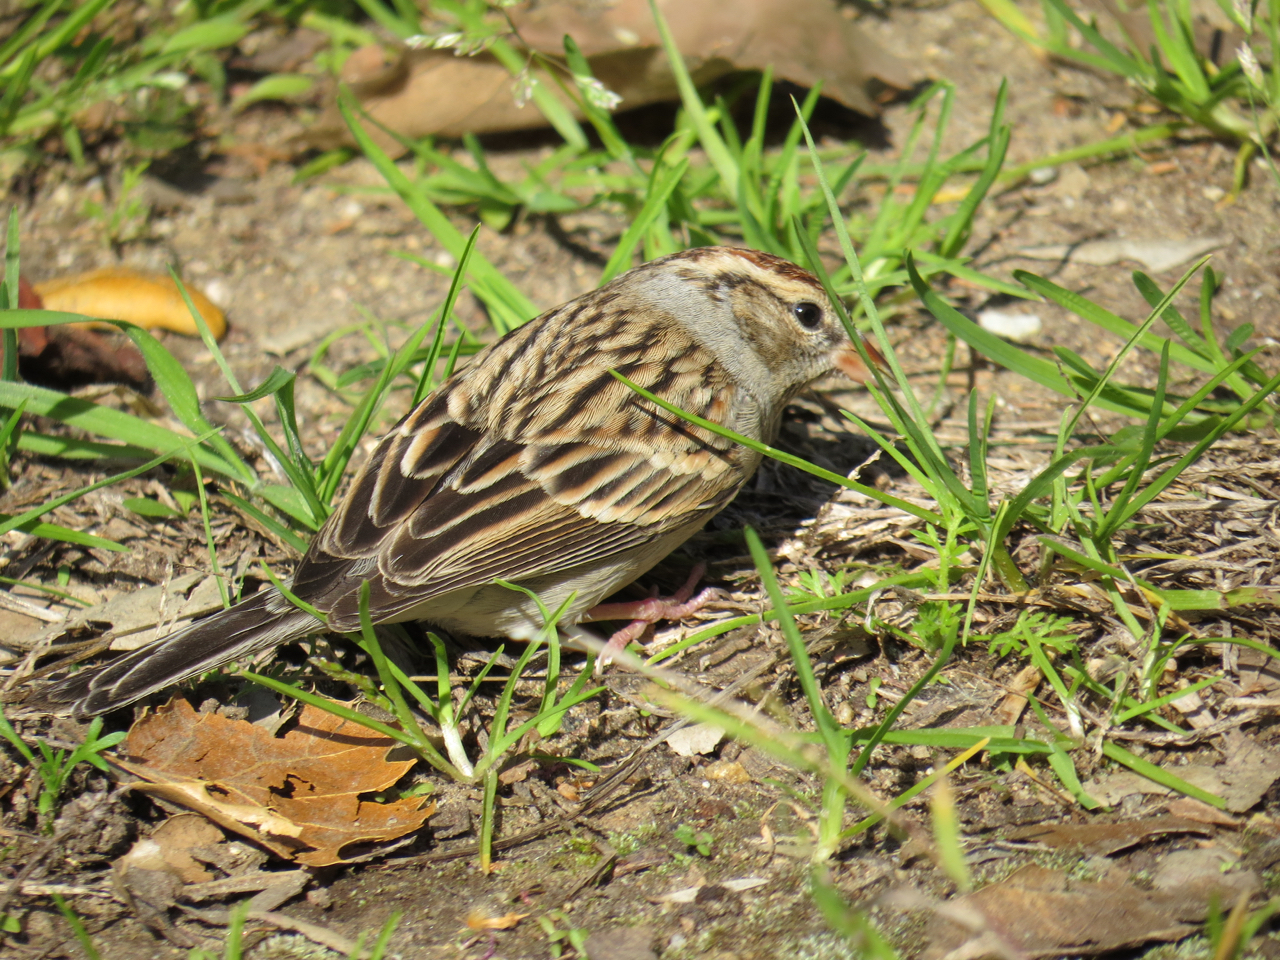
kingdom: Animalia
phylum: Chordata
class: Aves
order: Passeriformes
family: Passerellidae
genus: Spizella
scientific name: Spizella passerina
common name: Chipping sparrow
